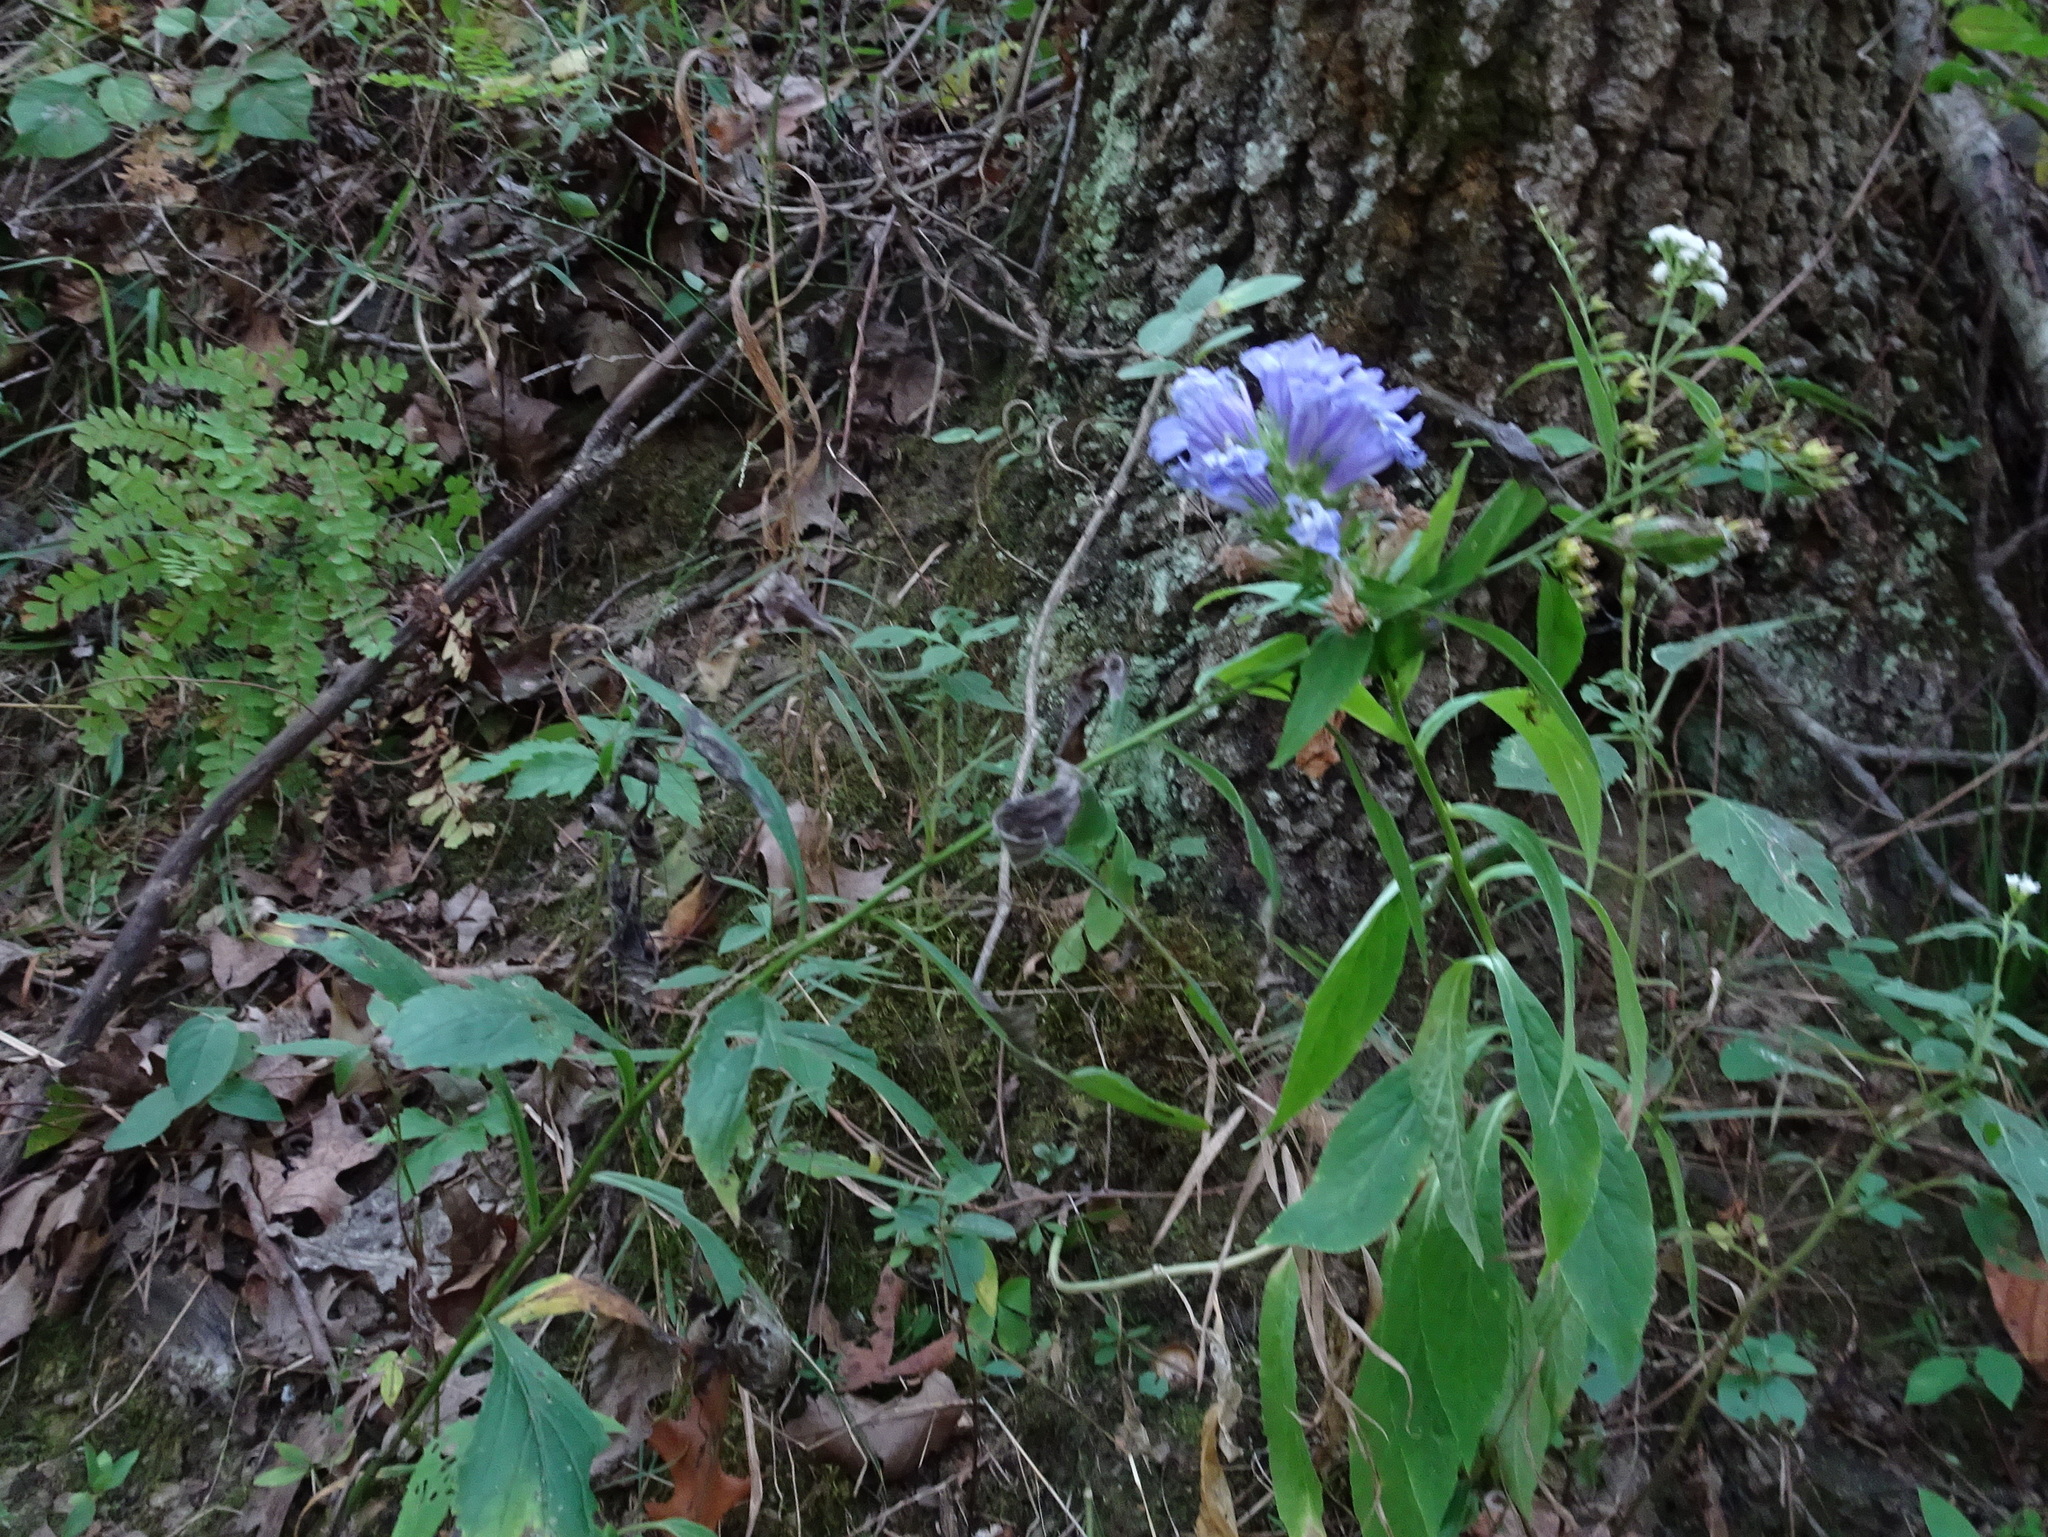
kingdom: Plantae
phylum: Tracheophyta
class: Magnoliopsida
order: Asterales
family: Campanulaceae
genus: Lobelia
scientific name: Lobelia siphilitica
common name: Great lobelia
